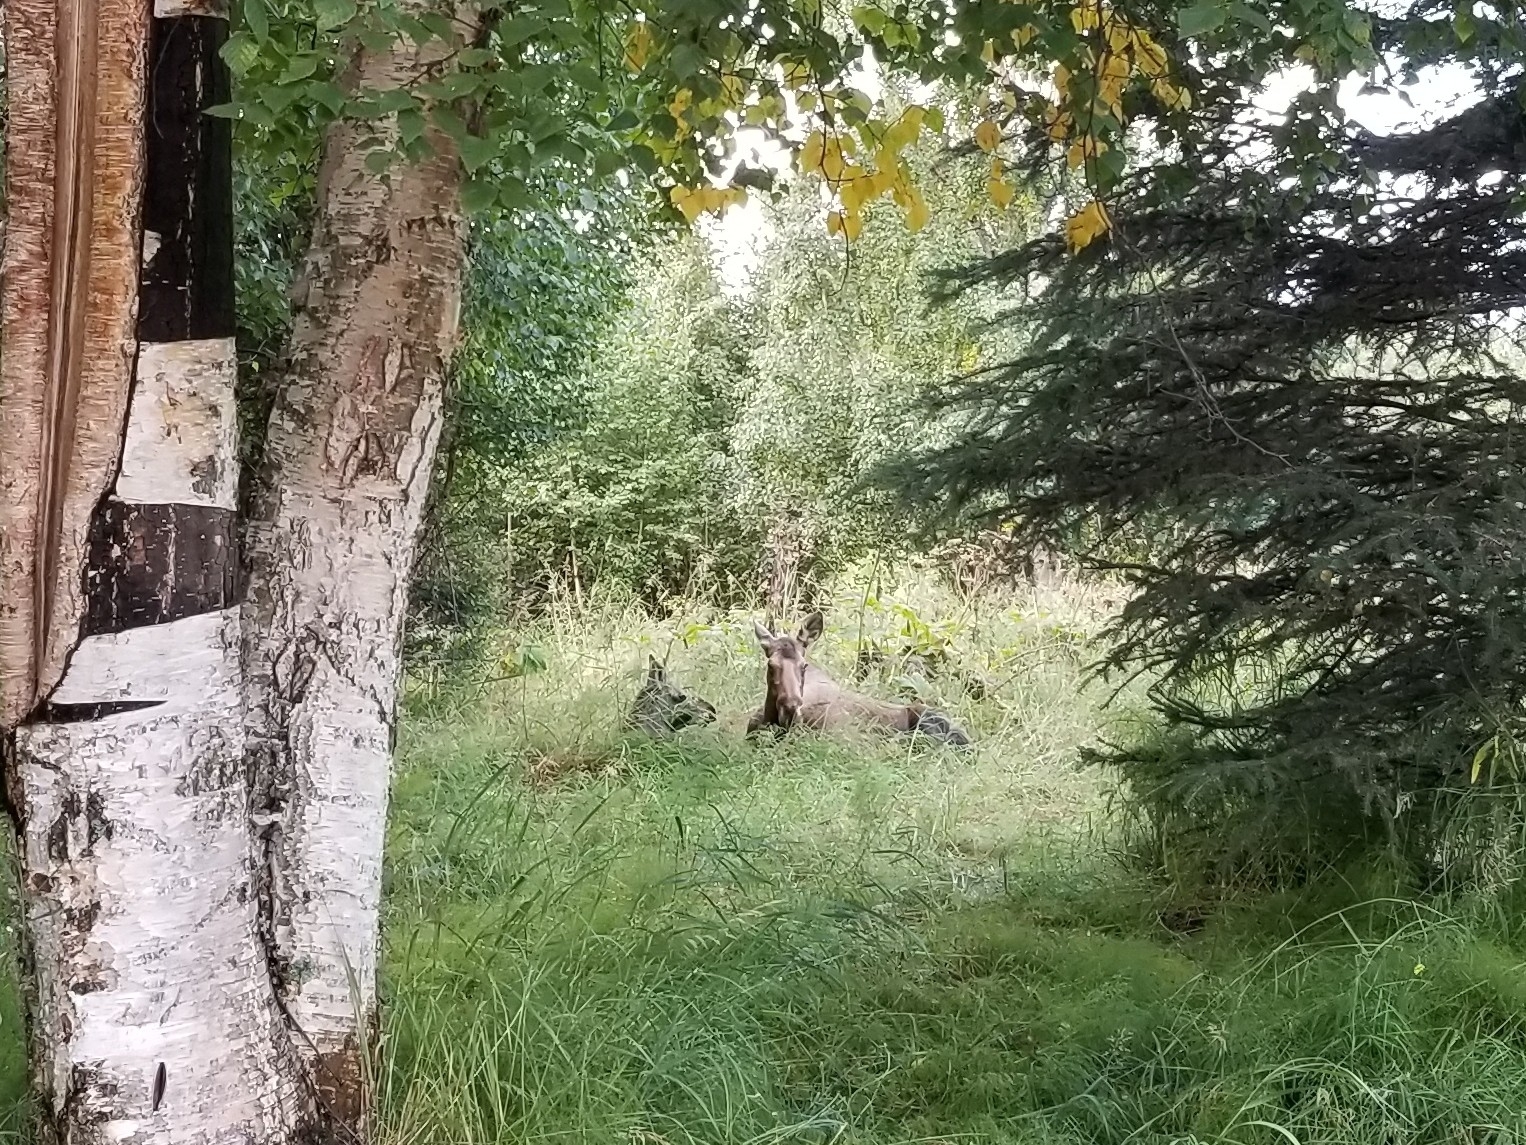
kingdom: Animalia
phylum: Chordata
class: Mammalia
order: Artiodactyla
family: Cervidae
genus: Alces
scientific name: Alces alces
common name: Moose
